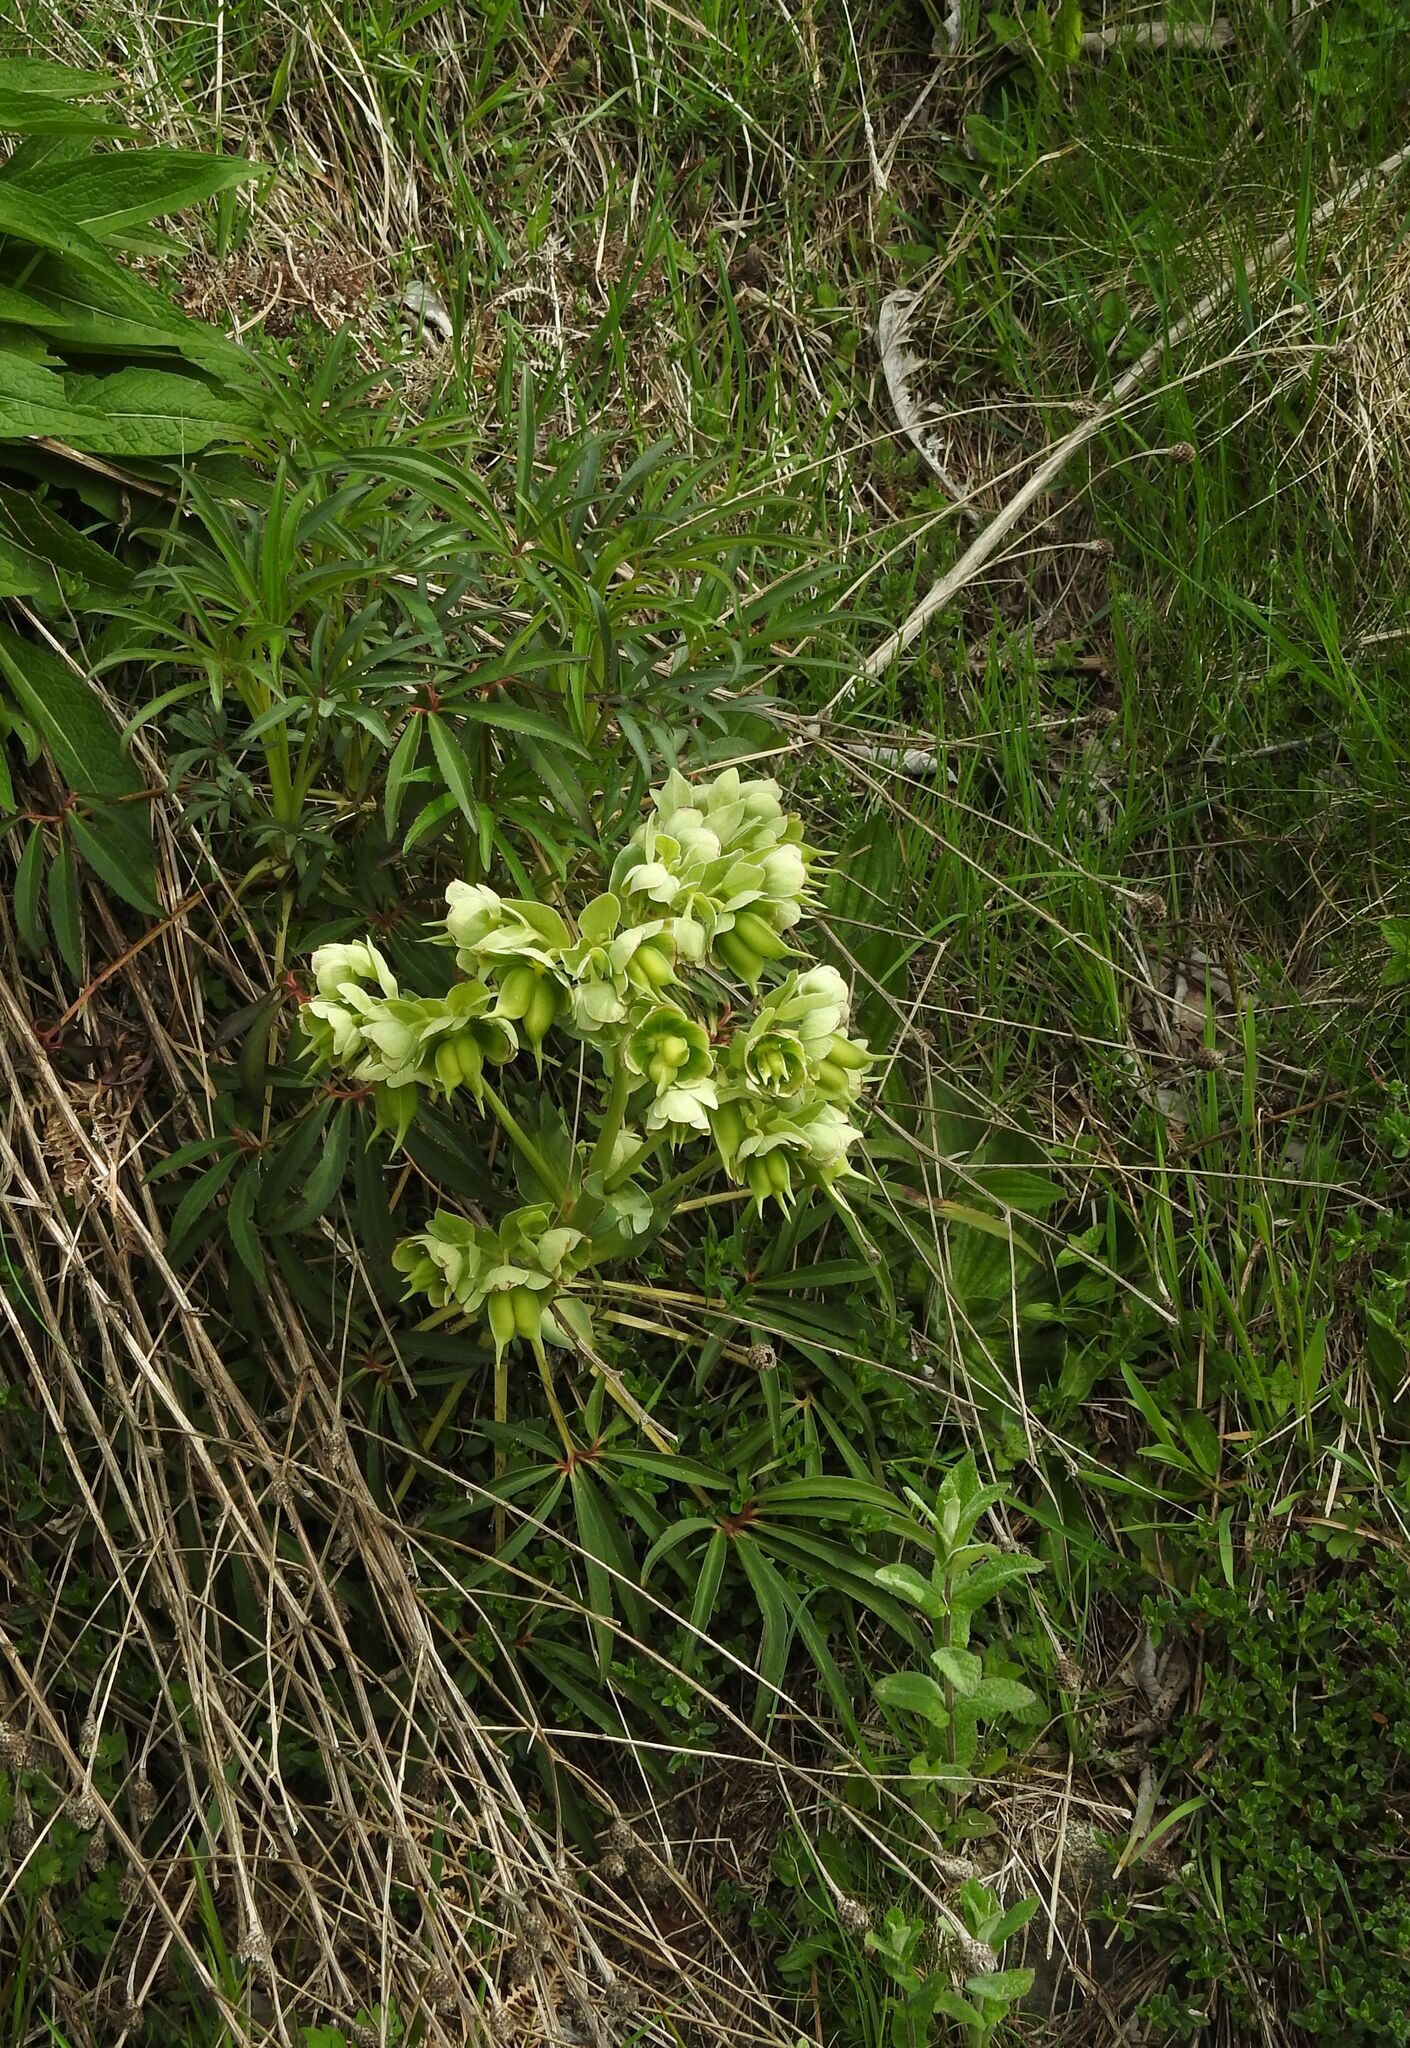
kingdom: Plantae
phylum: Tracheophyta
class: Magnoliopsida
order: Ranunculales
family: Ranunculaceae
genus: Helleborus
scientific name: Helleborus foetidus
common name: Stinking hellebore
